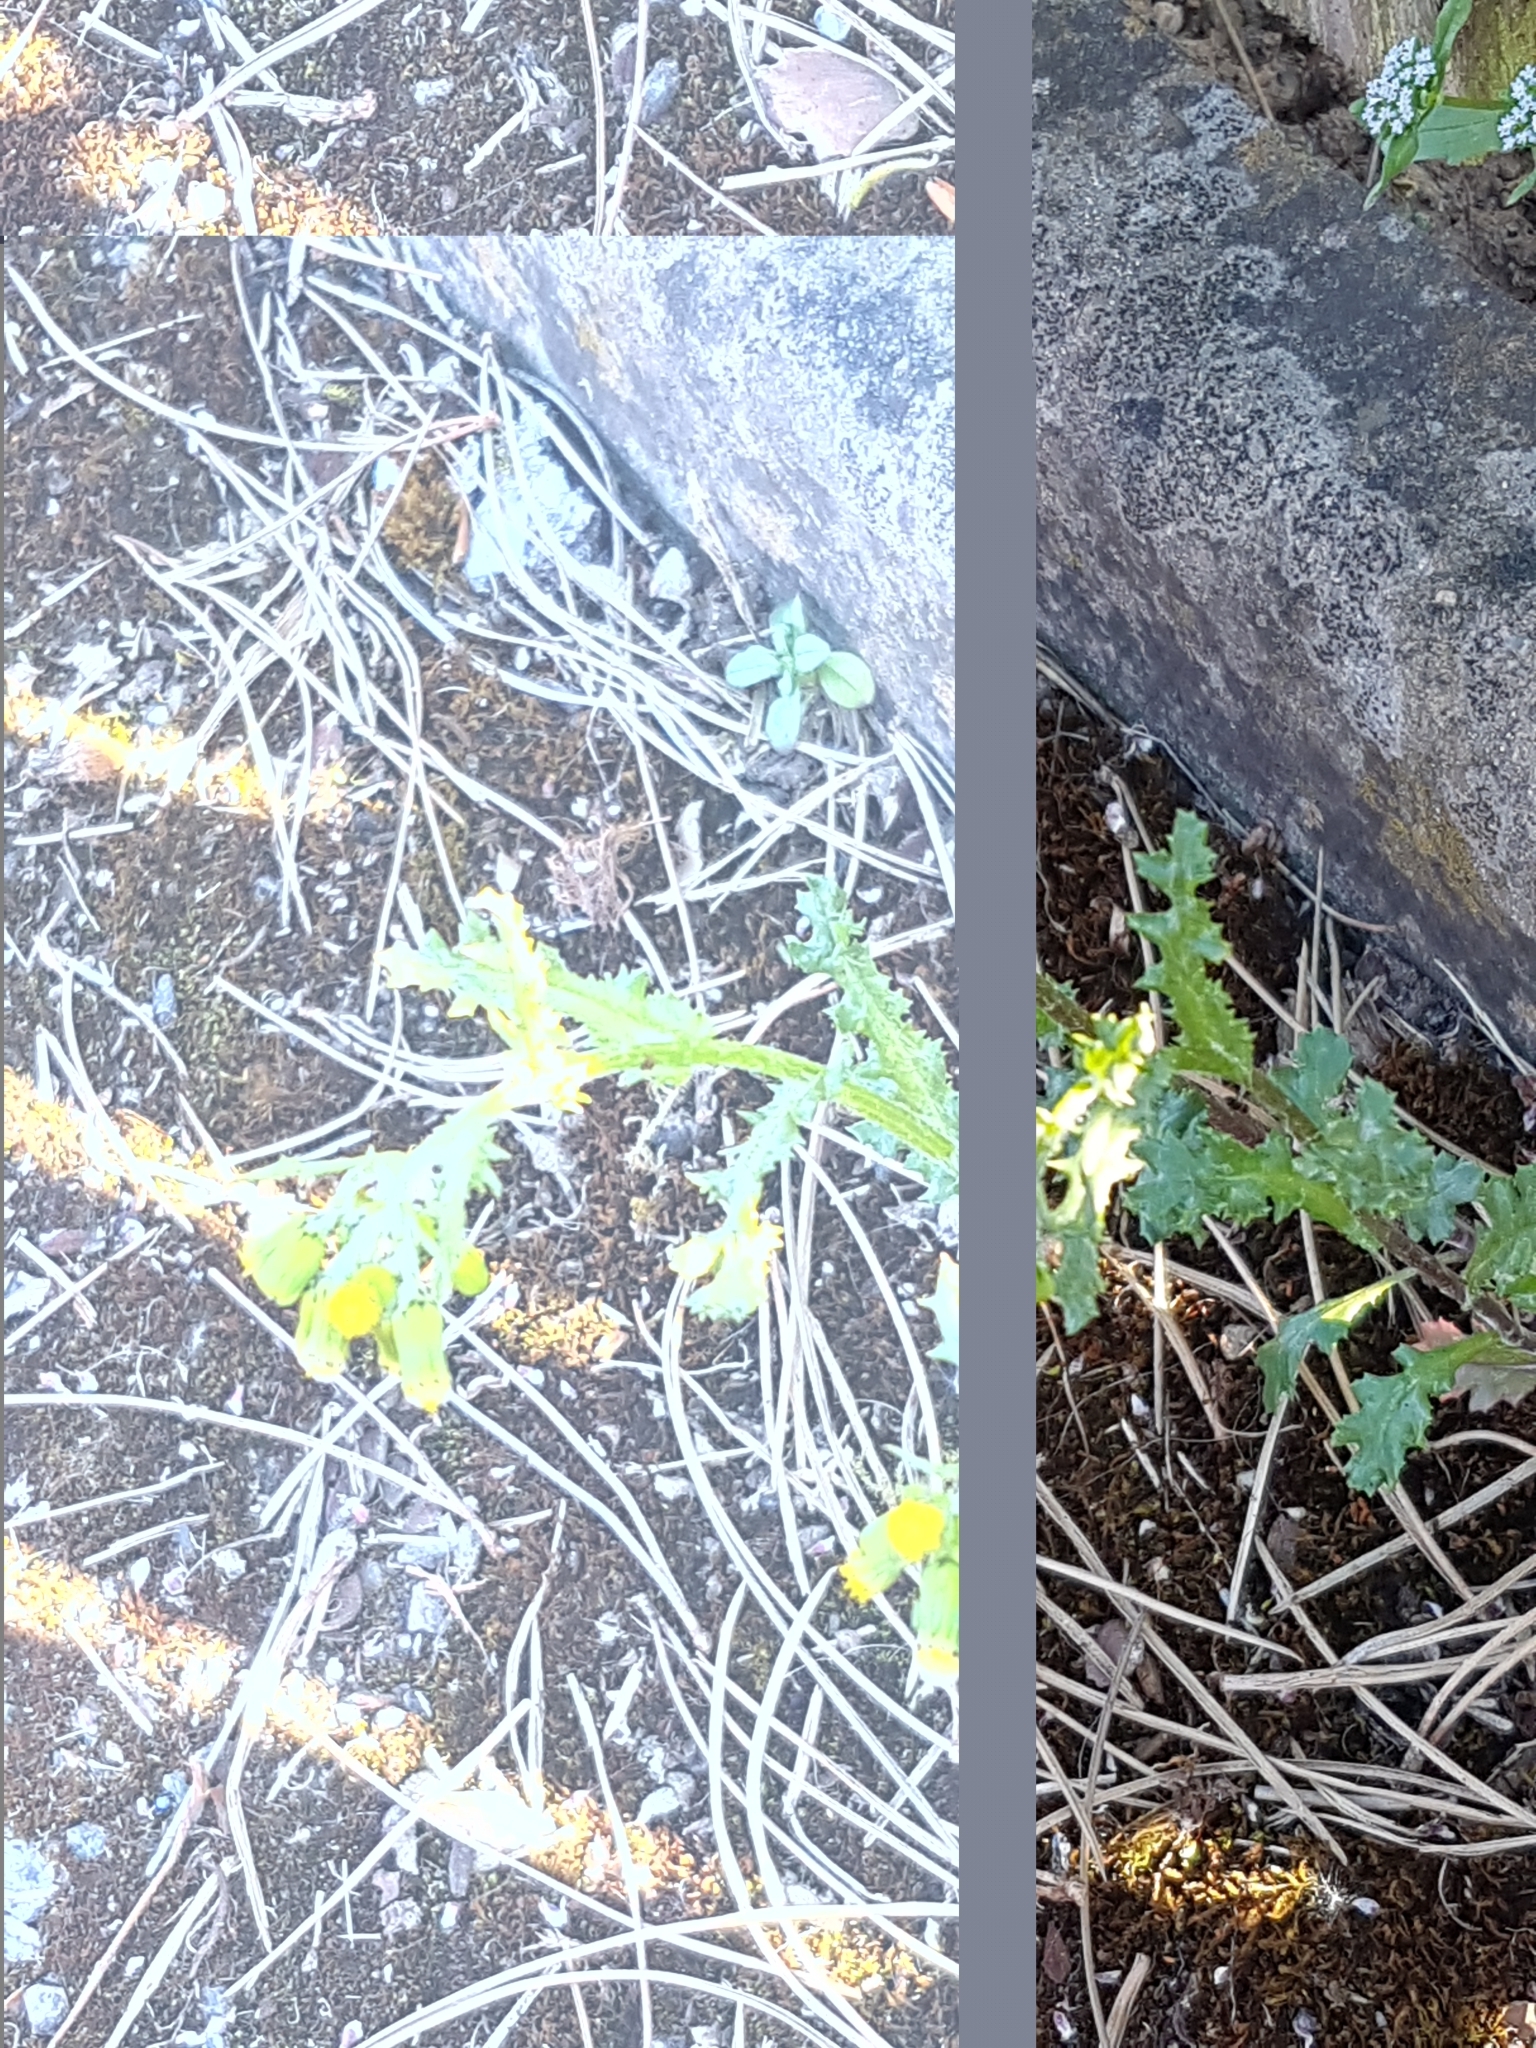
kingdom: Plantae
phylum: Tracheophyta
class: Magnoliopsida
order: Asterales
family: Asteraceae
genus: Senecio
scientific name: Senecio vulgaris
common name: Old-man-in-the-spring
